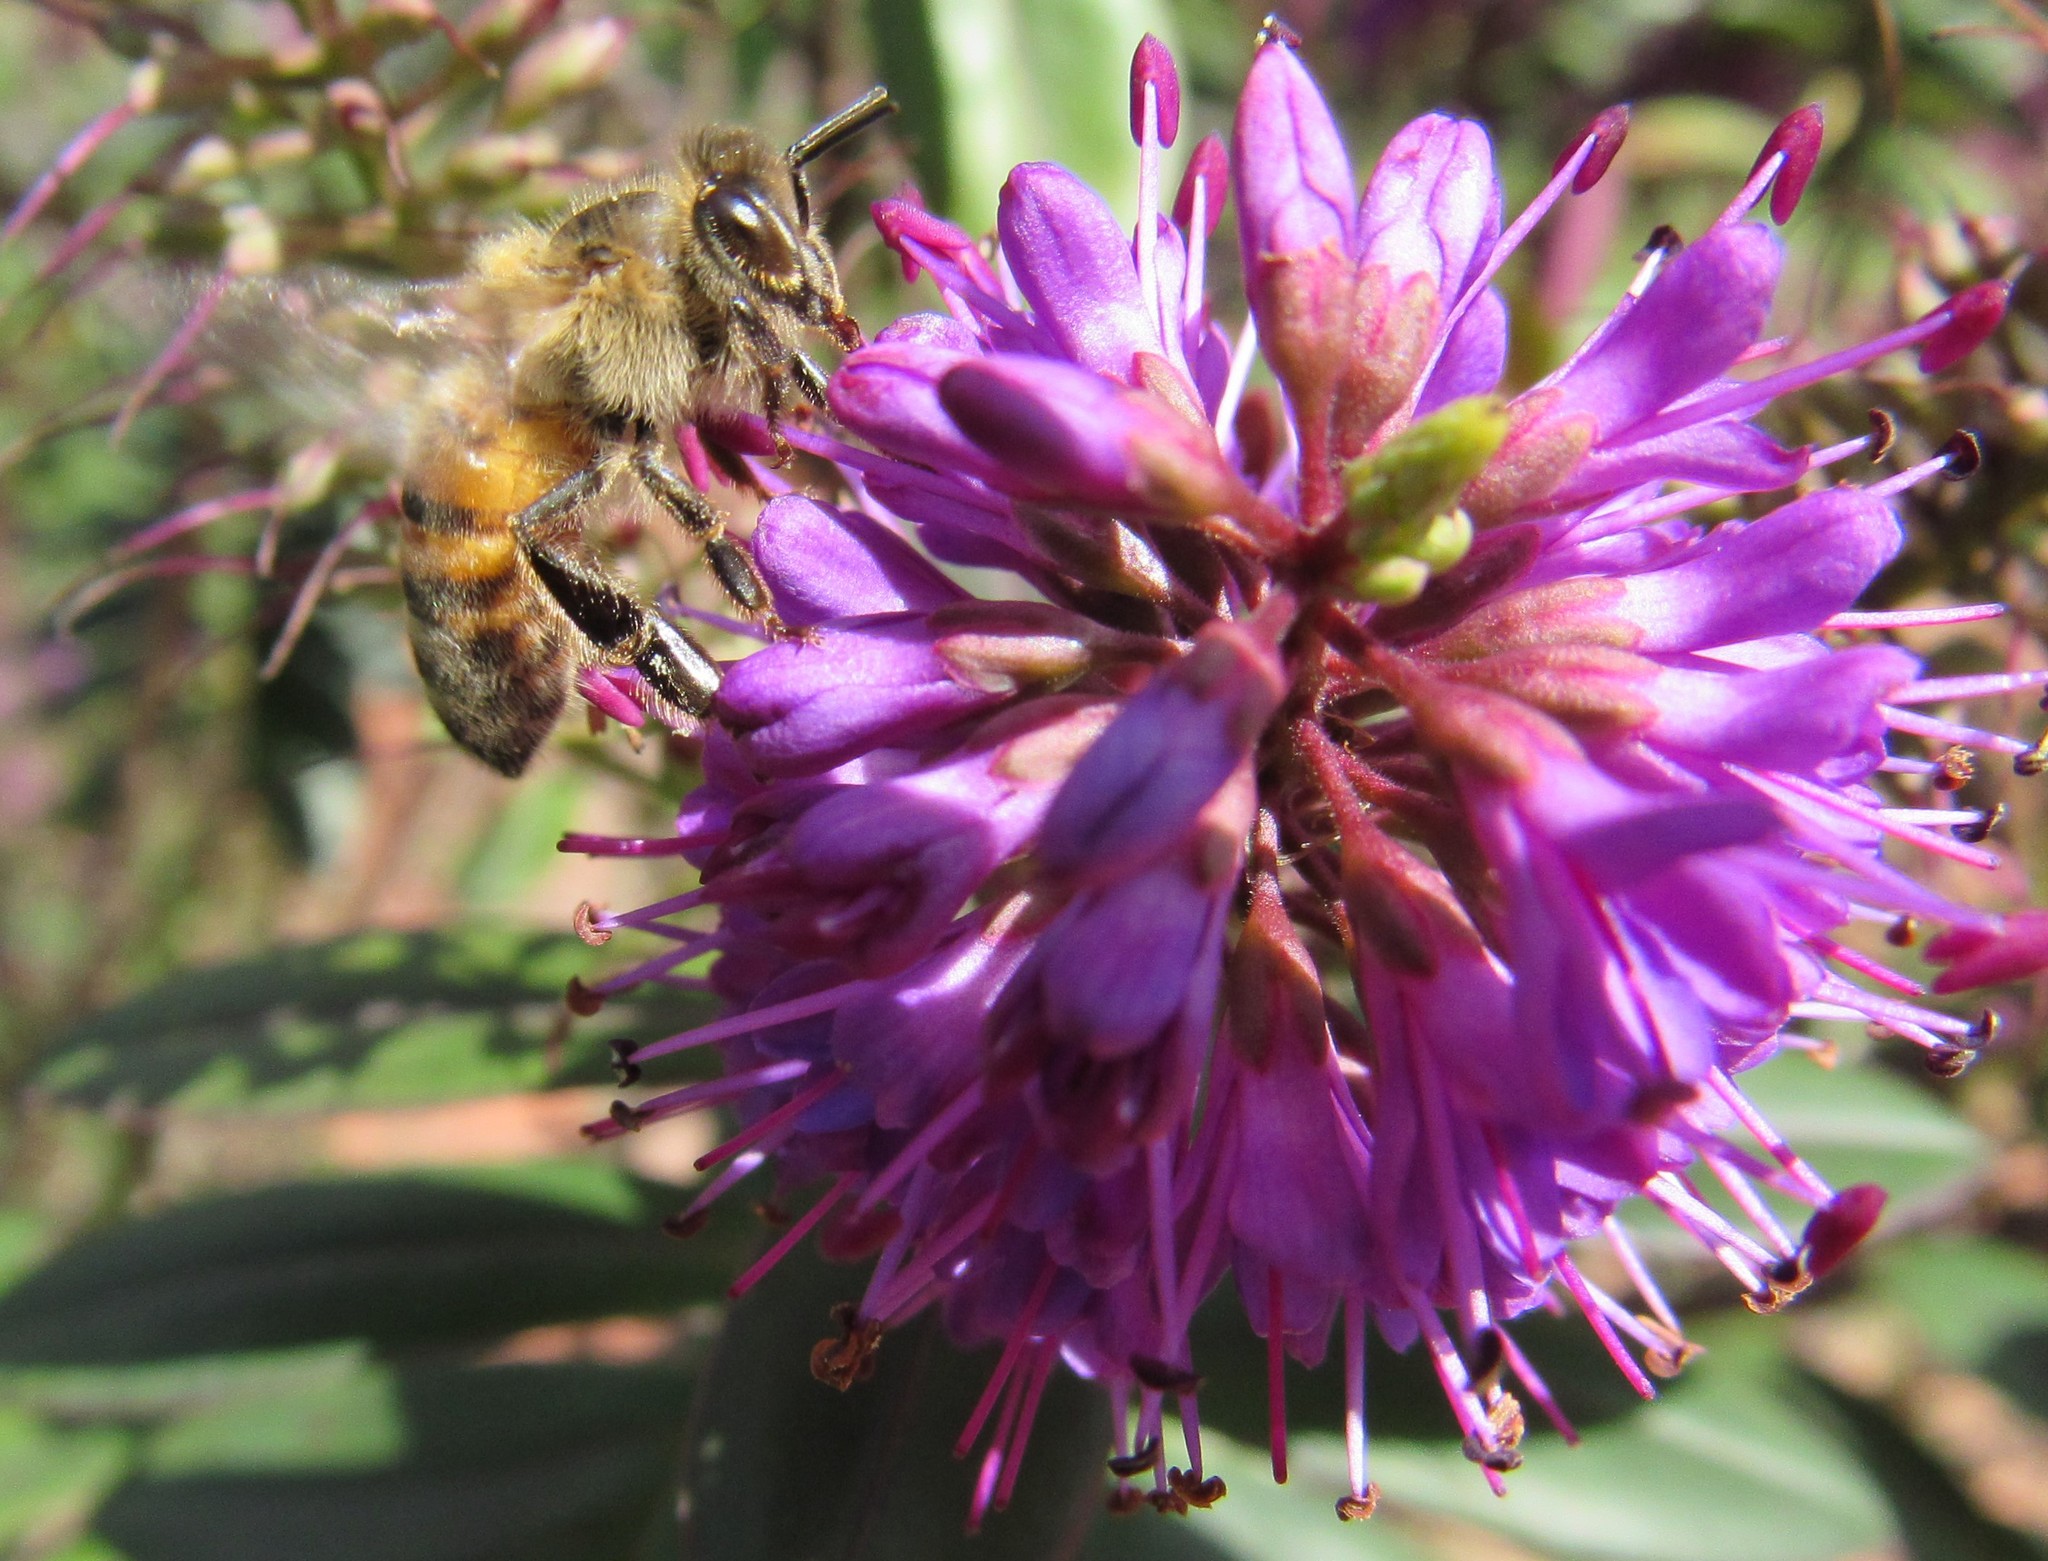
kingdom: Animalia
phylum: Arthropoda
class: Insecta
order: Hymenoptera
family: Apidae
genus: Apis
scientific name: Apis mellifera
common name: Honey bee
